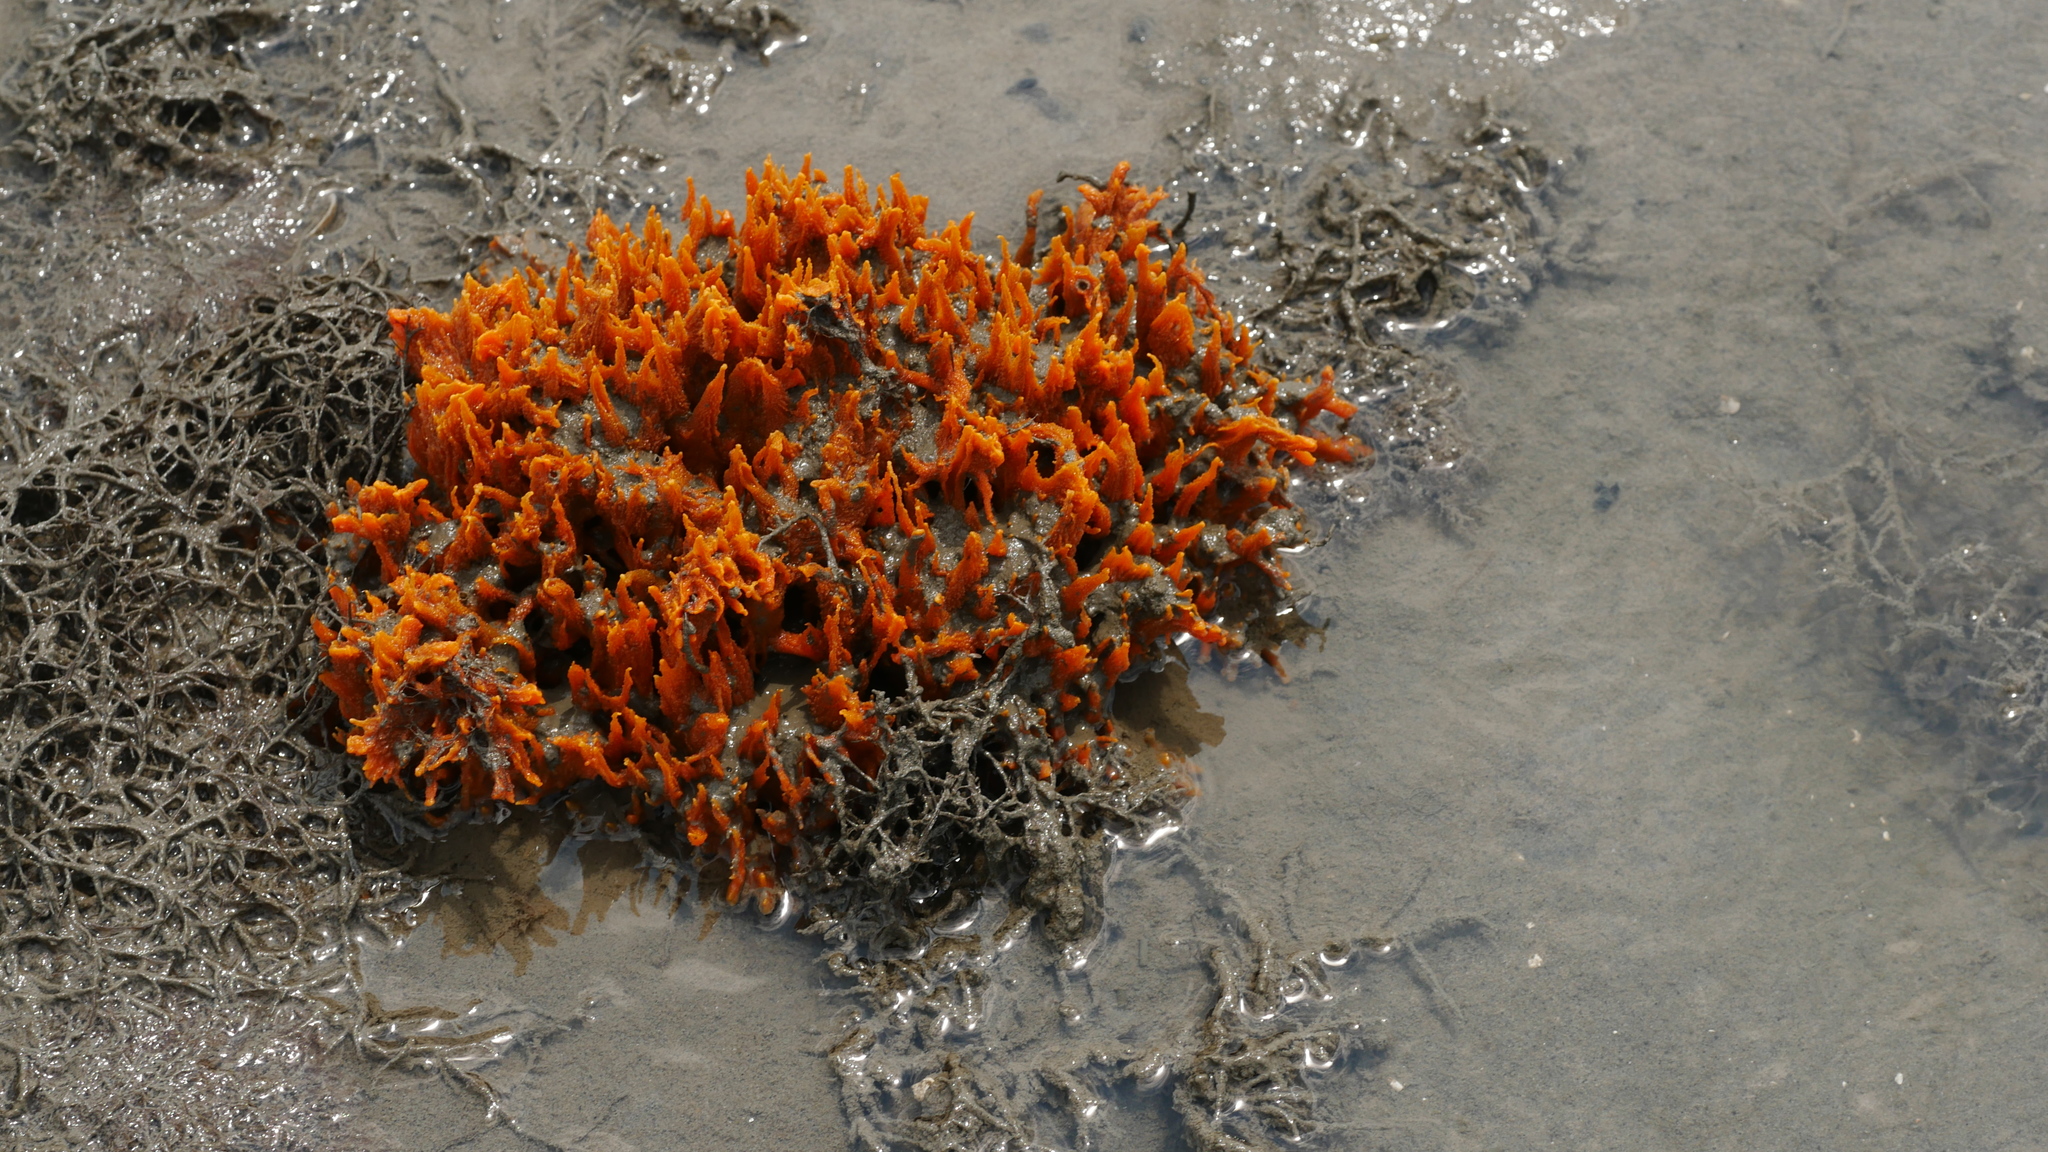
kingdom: Animalia
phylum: Porifera
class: Demospongiae
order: Suberitida
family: Halichondriidae
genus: Hymeniacidon
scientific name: Hymeniacidon heliophila
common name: Diurnal horny sponge
